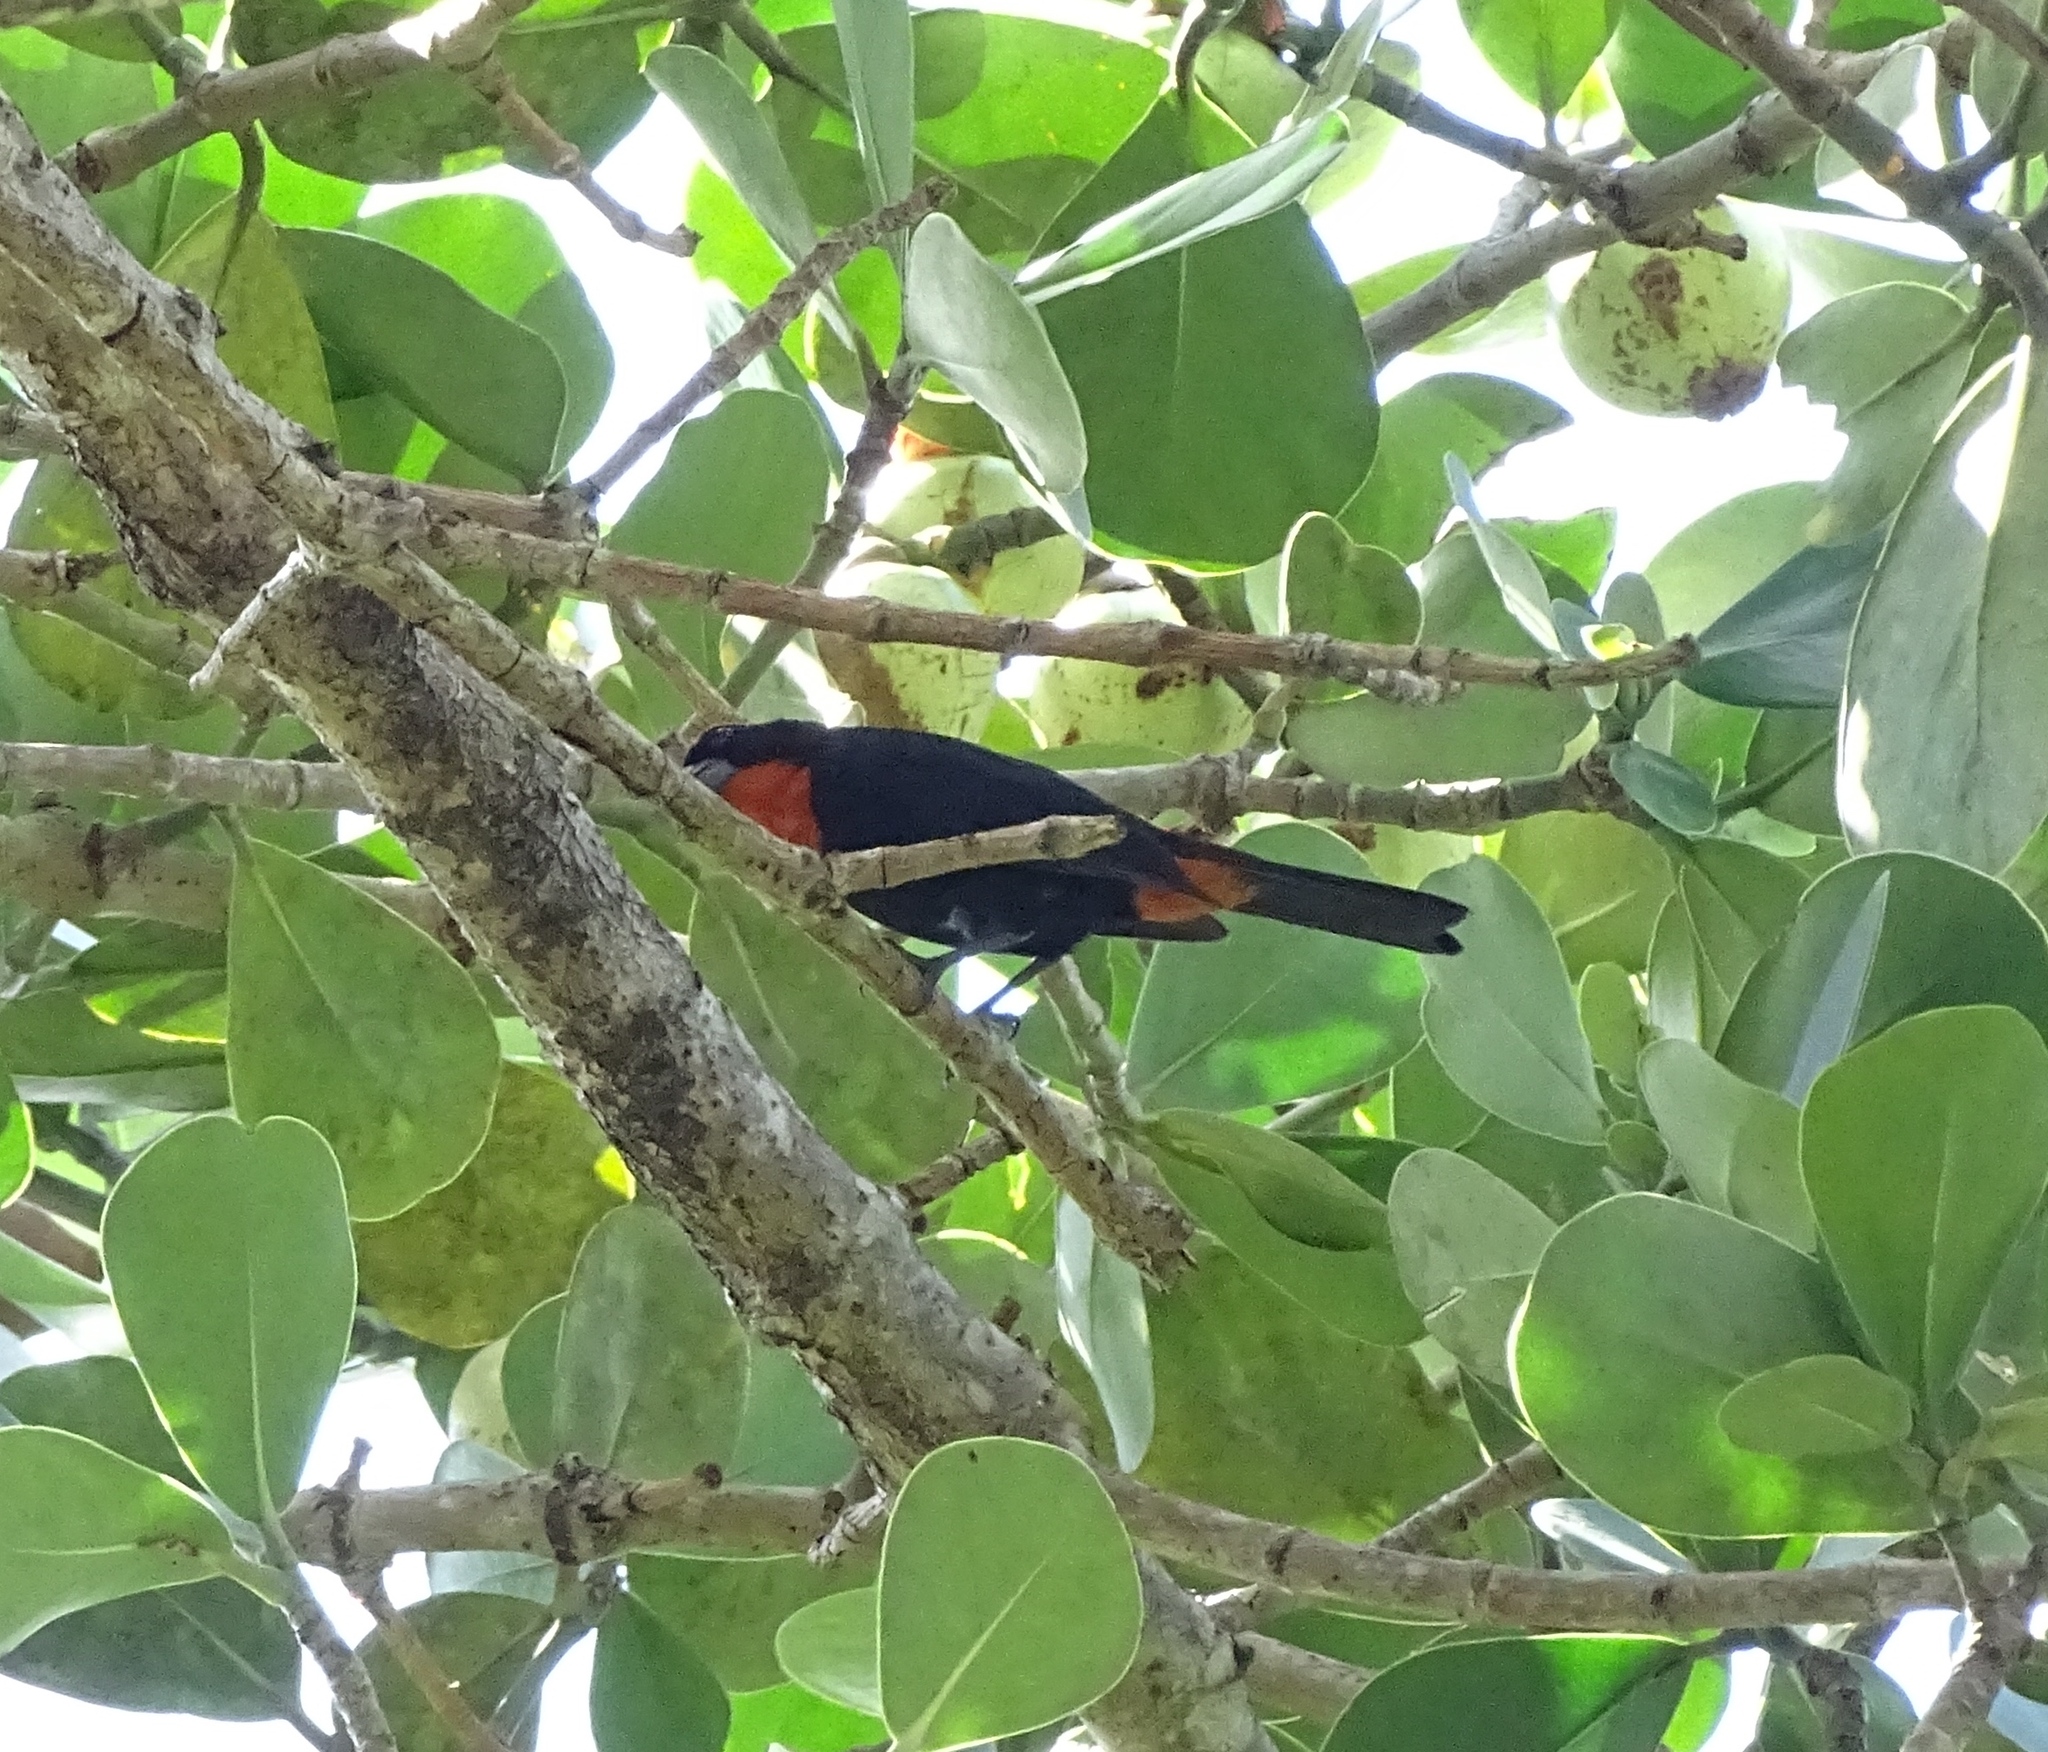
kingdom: Animalia
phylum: Chordata
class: Aves
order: Passeriformes
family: Thraupidae
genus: Melopyrrha
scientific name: Melopyrrha portoricensis
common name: Puerto rican bullfinch
